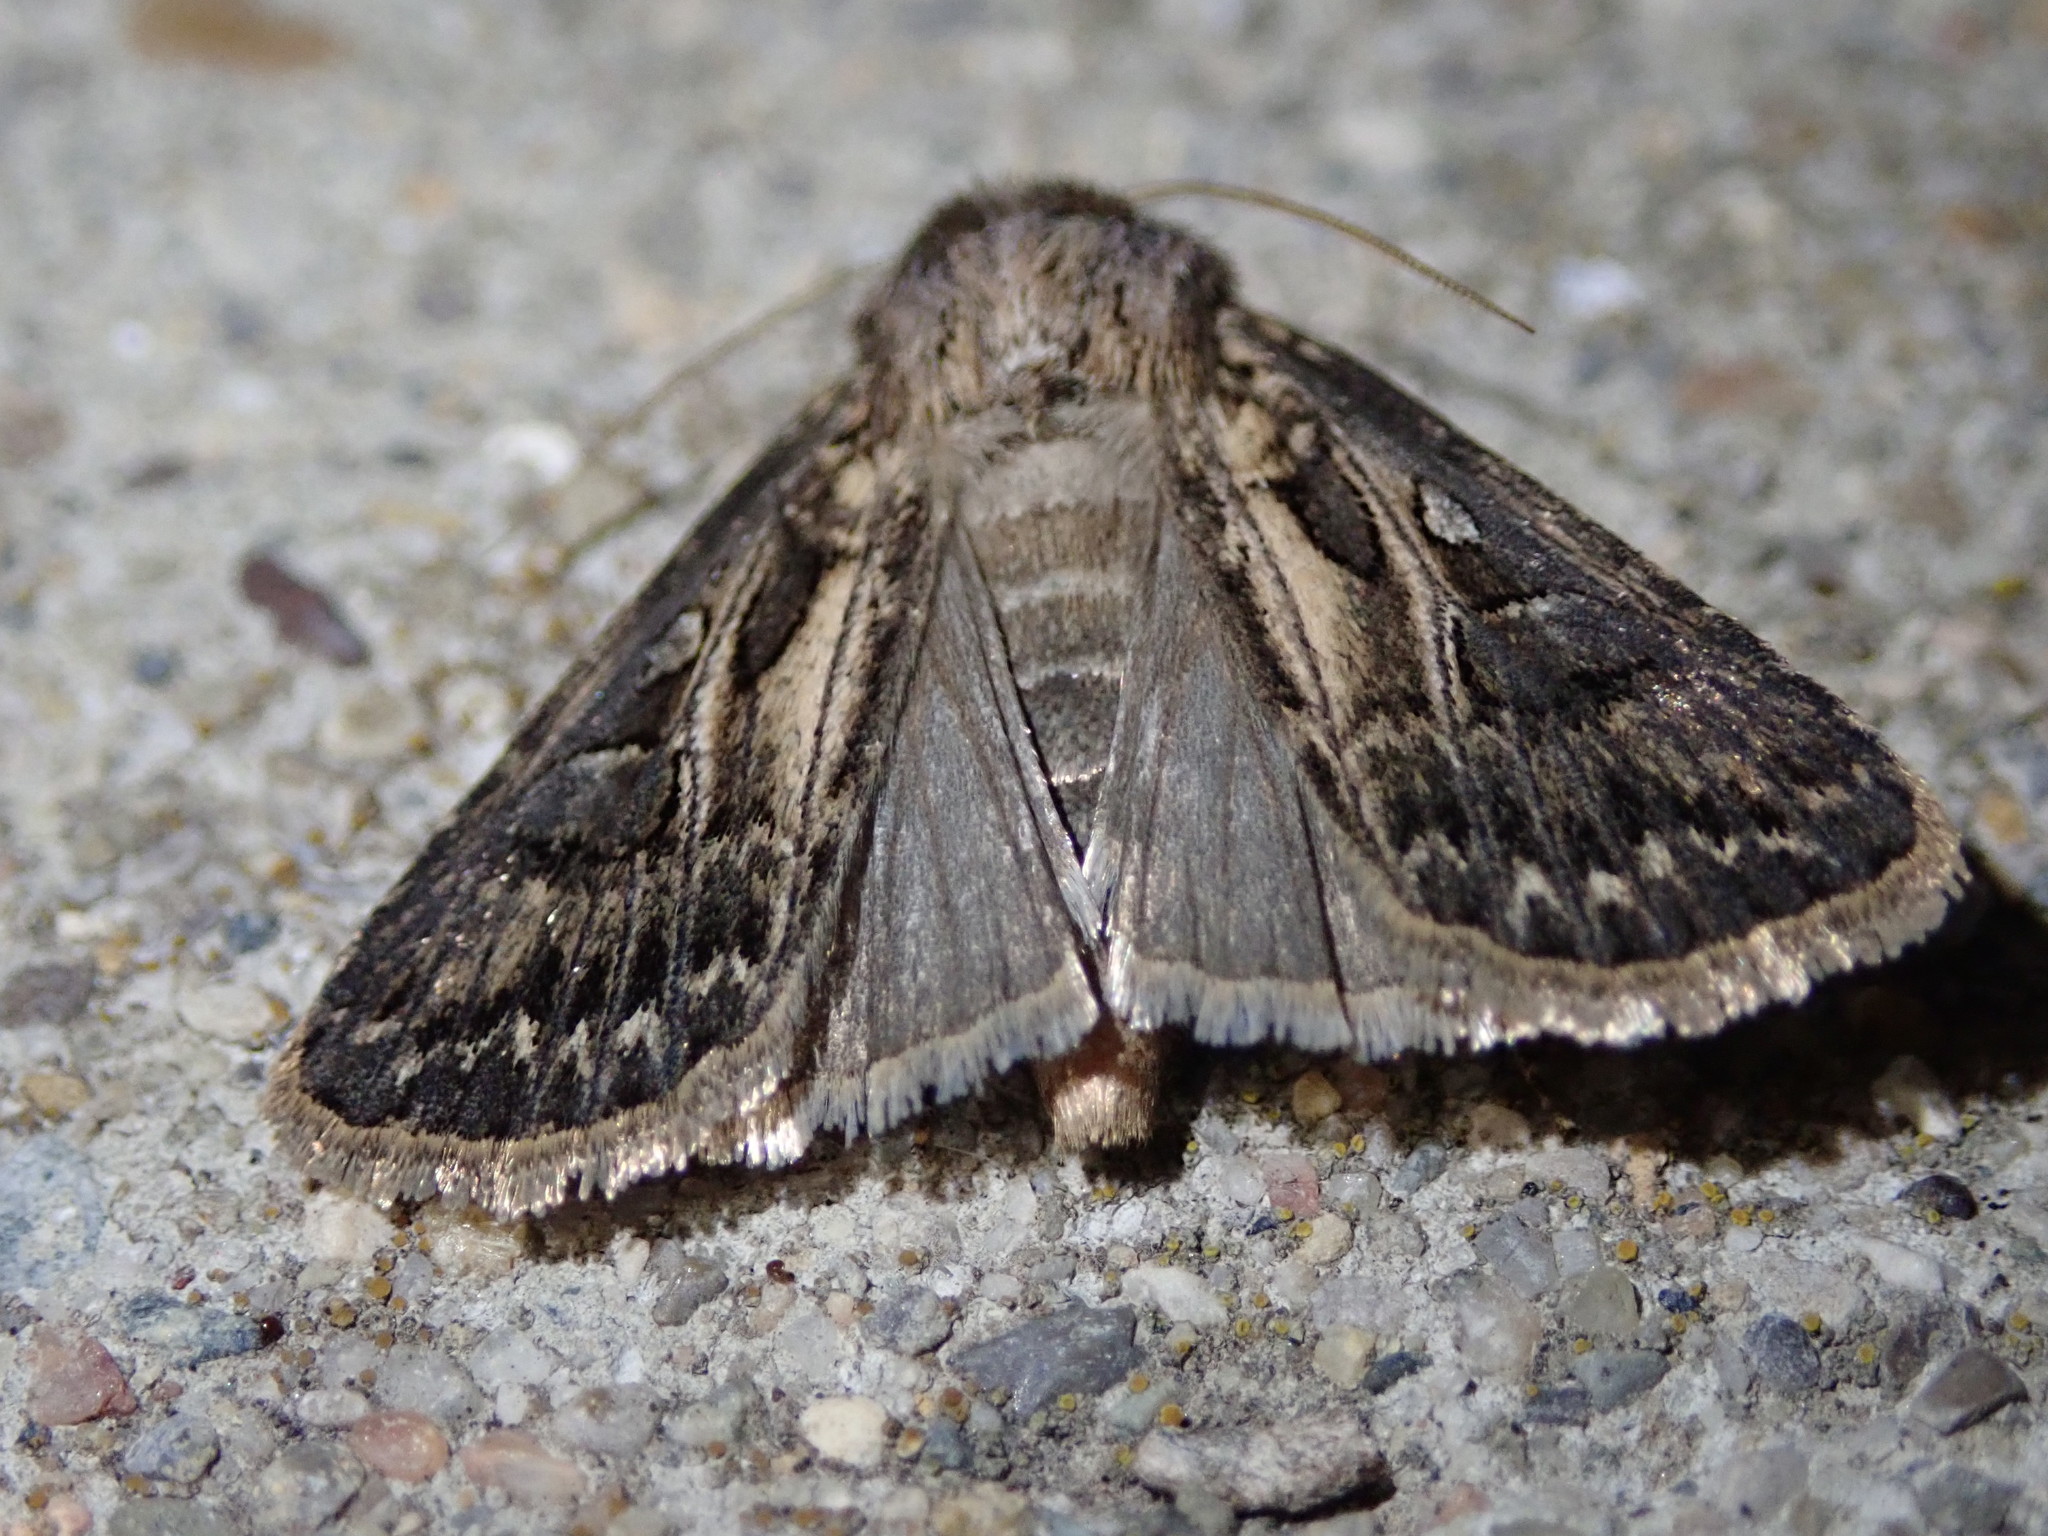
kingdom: Animalia
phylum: Arthropoda
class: Insecta
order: Lepidoptera
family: Noctuidae
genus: Agrotis
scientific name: Agrotis gladiaria
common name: Claybacked cutworm
